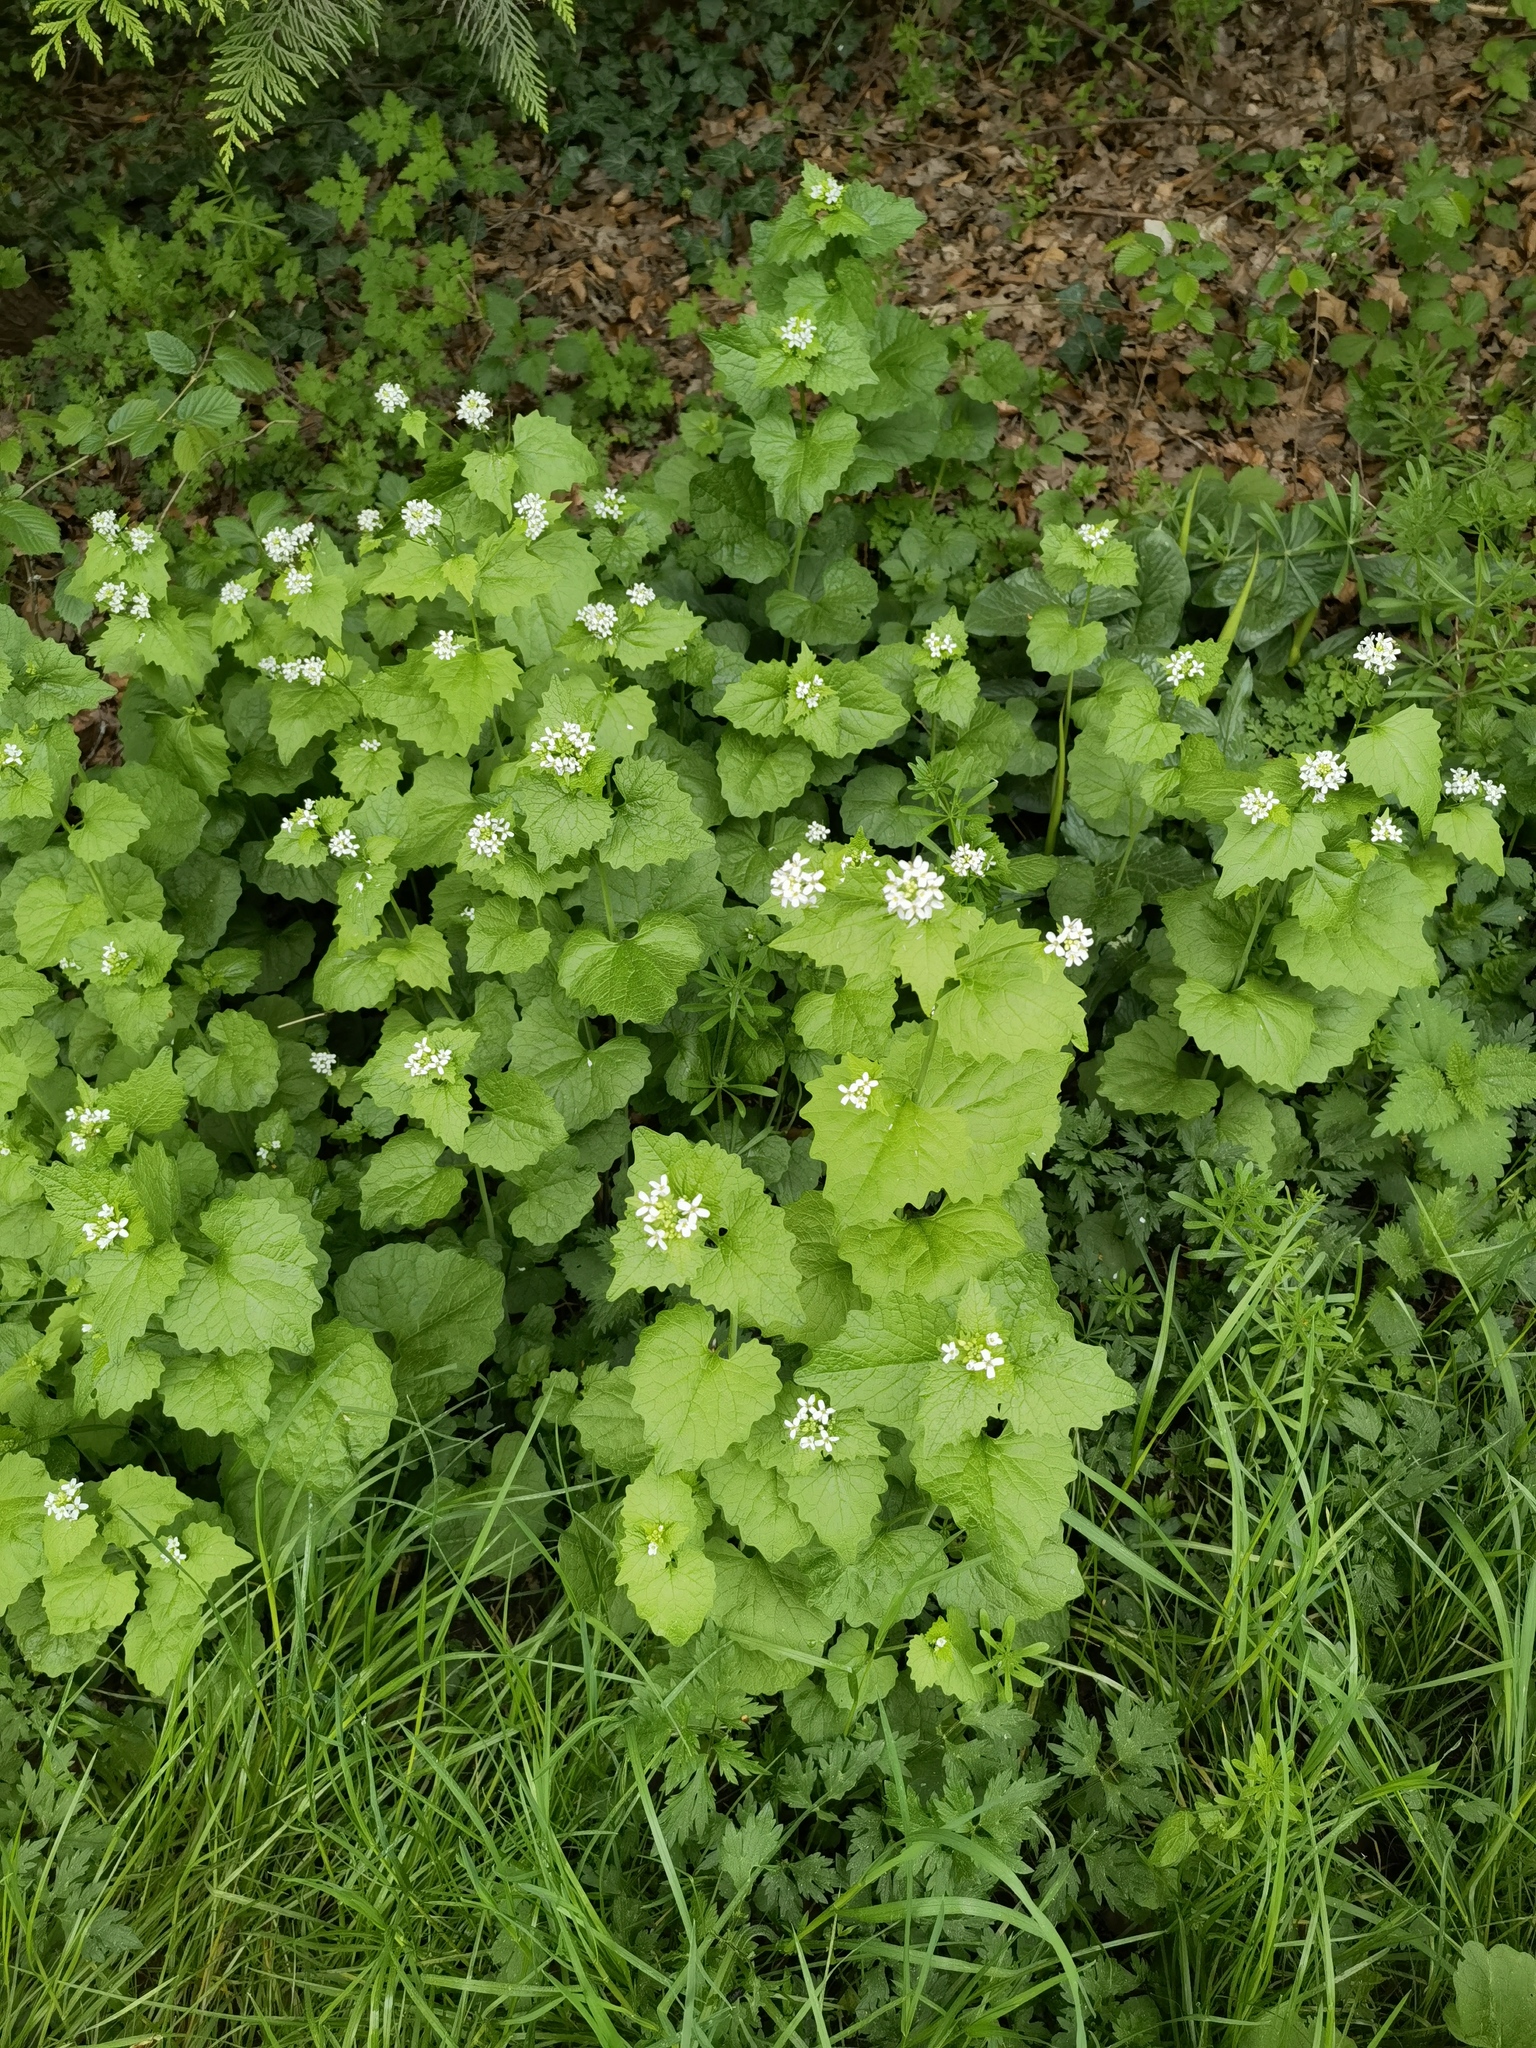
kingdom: Plantae
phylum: Tracheophyta
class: Magnoliopsida
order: Brassicales
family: Brassicaceae
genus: Alliaria
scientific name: Alliaria petiolata
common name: Garlic mustard
